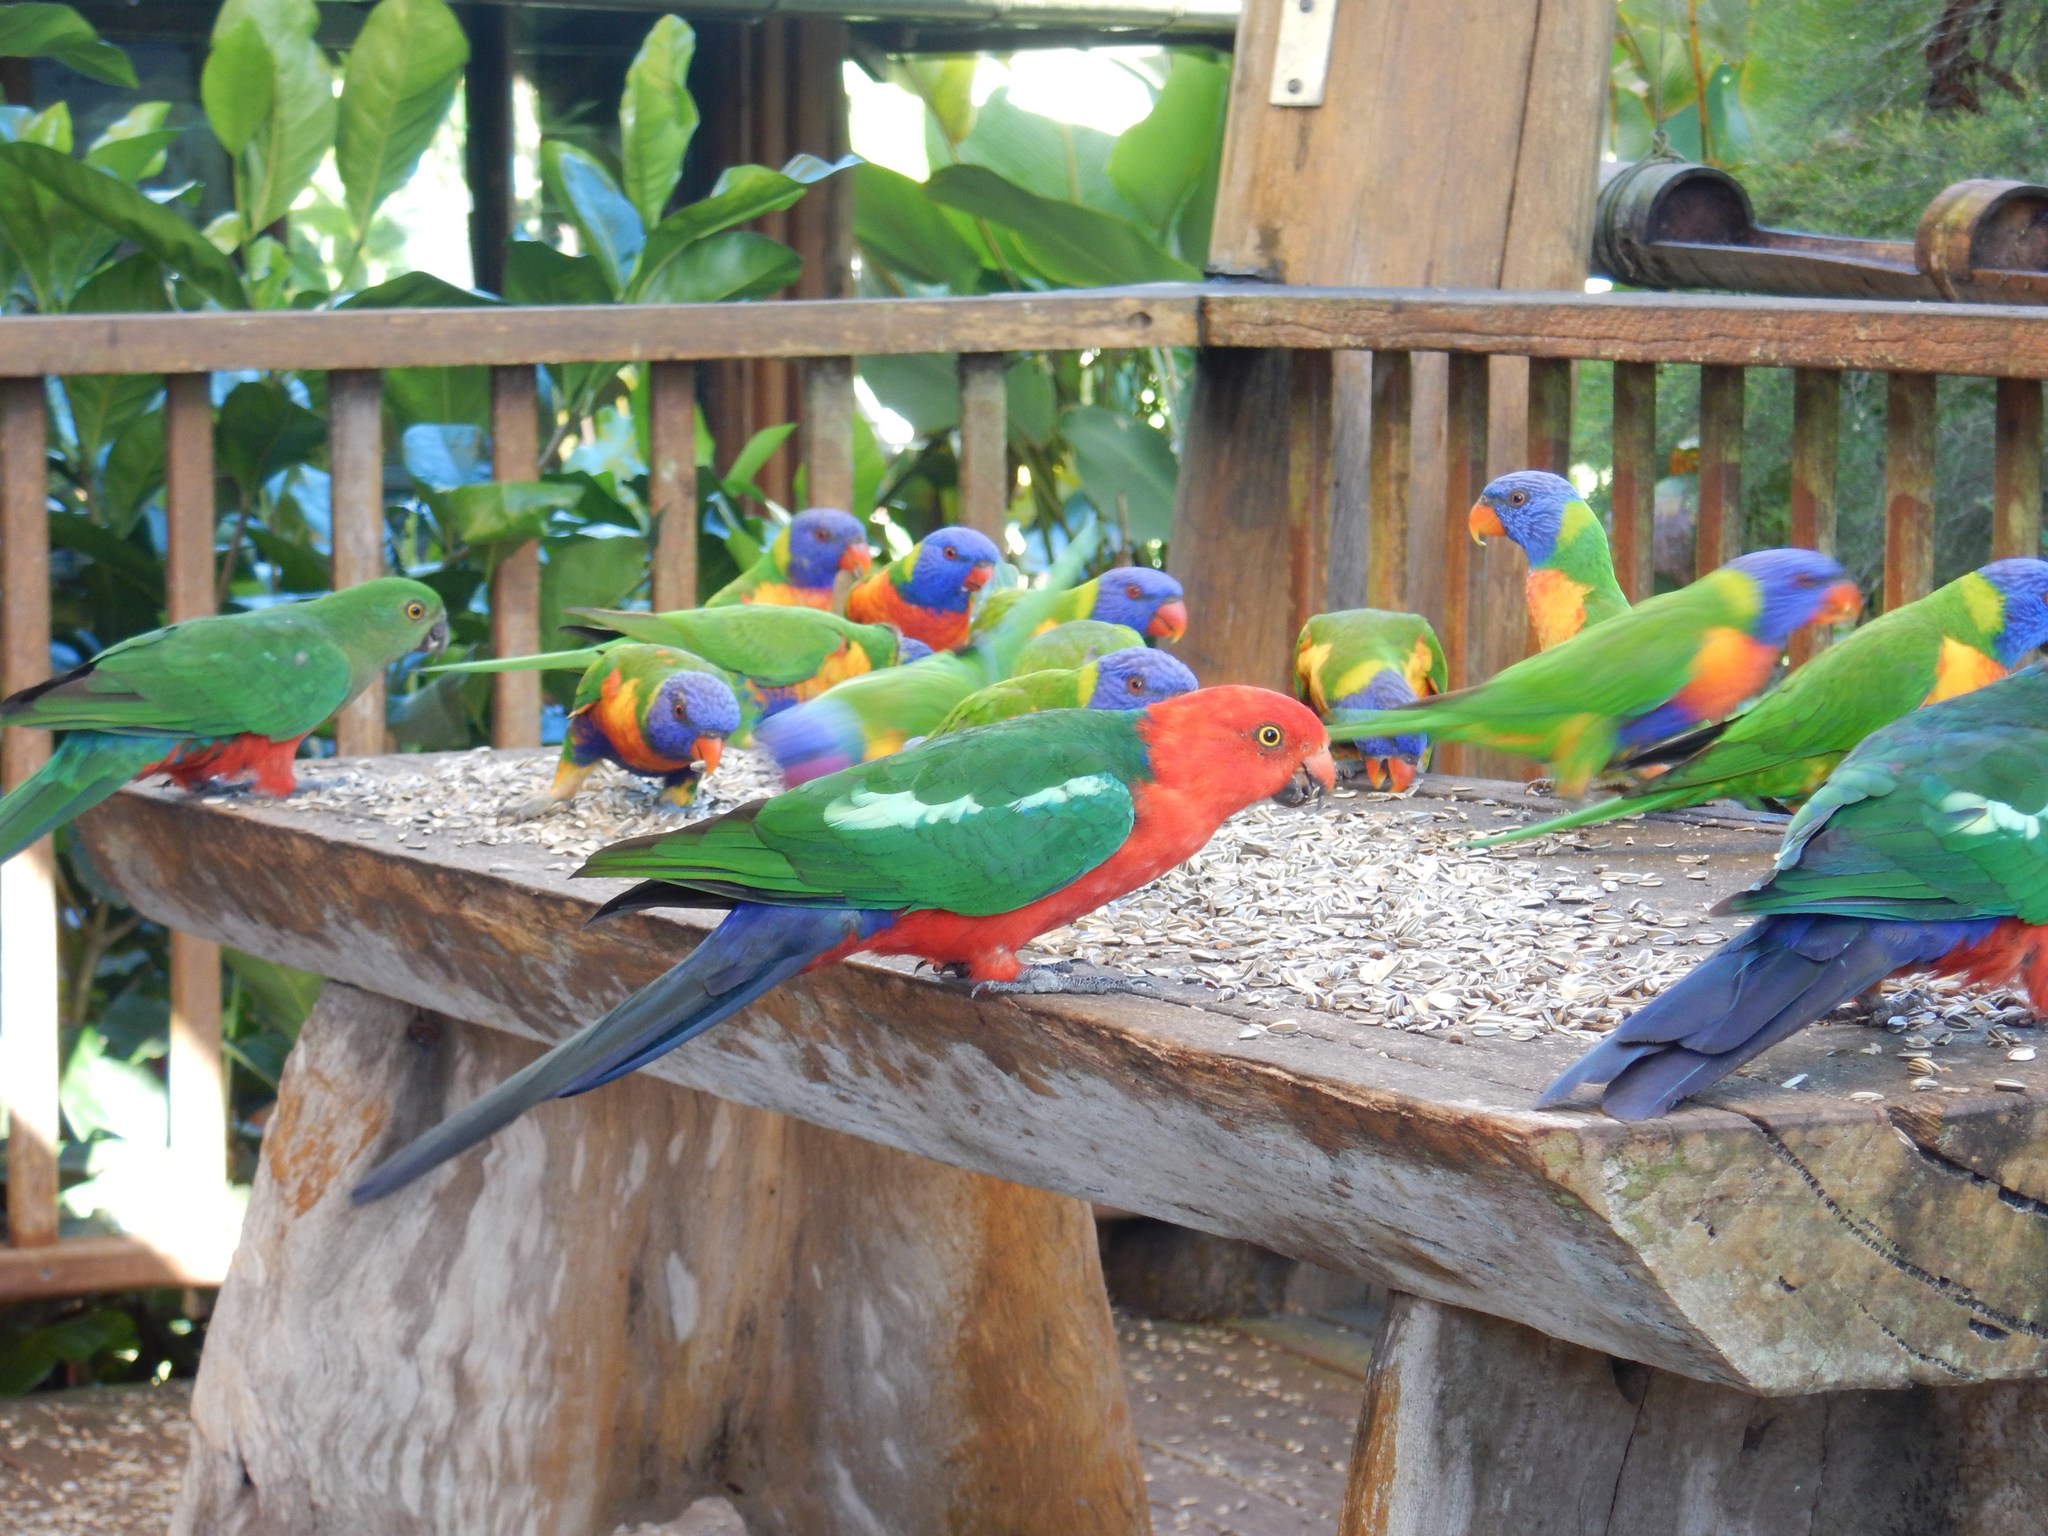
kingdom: Animalia
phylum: Chordata
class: Aves
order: Psittaciformes
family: Psittacidae
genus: Alisterus
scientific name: Alisterus scapularis
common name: Australian king parrot
